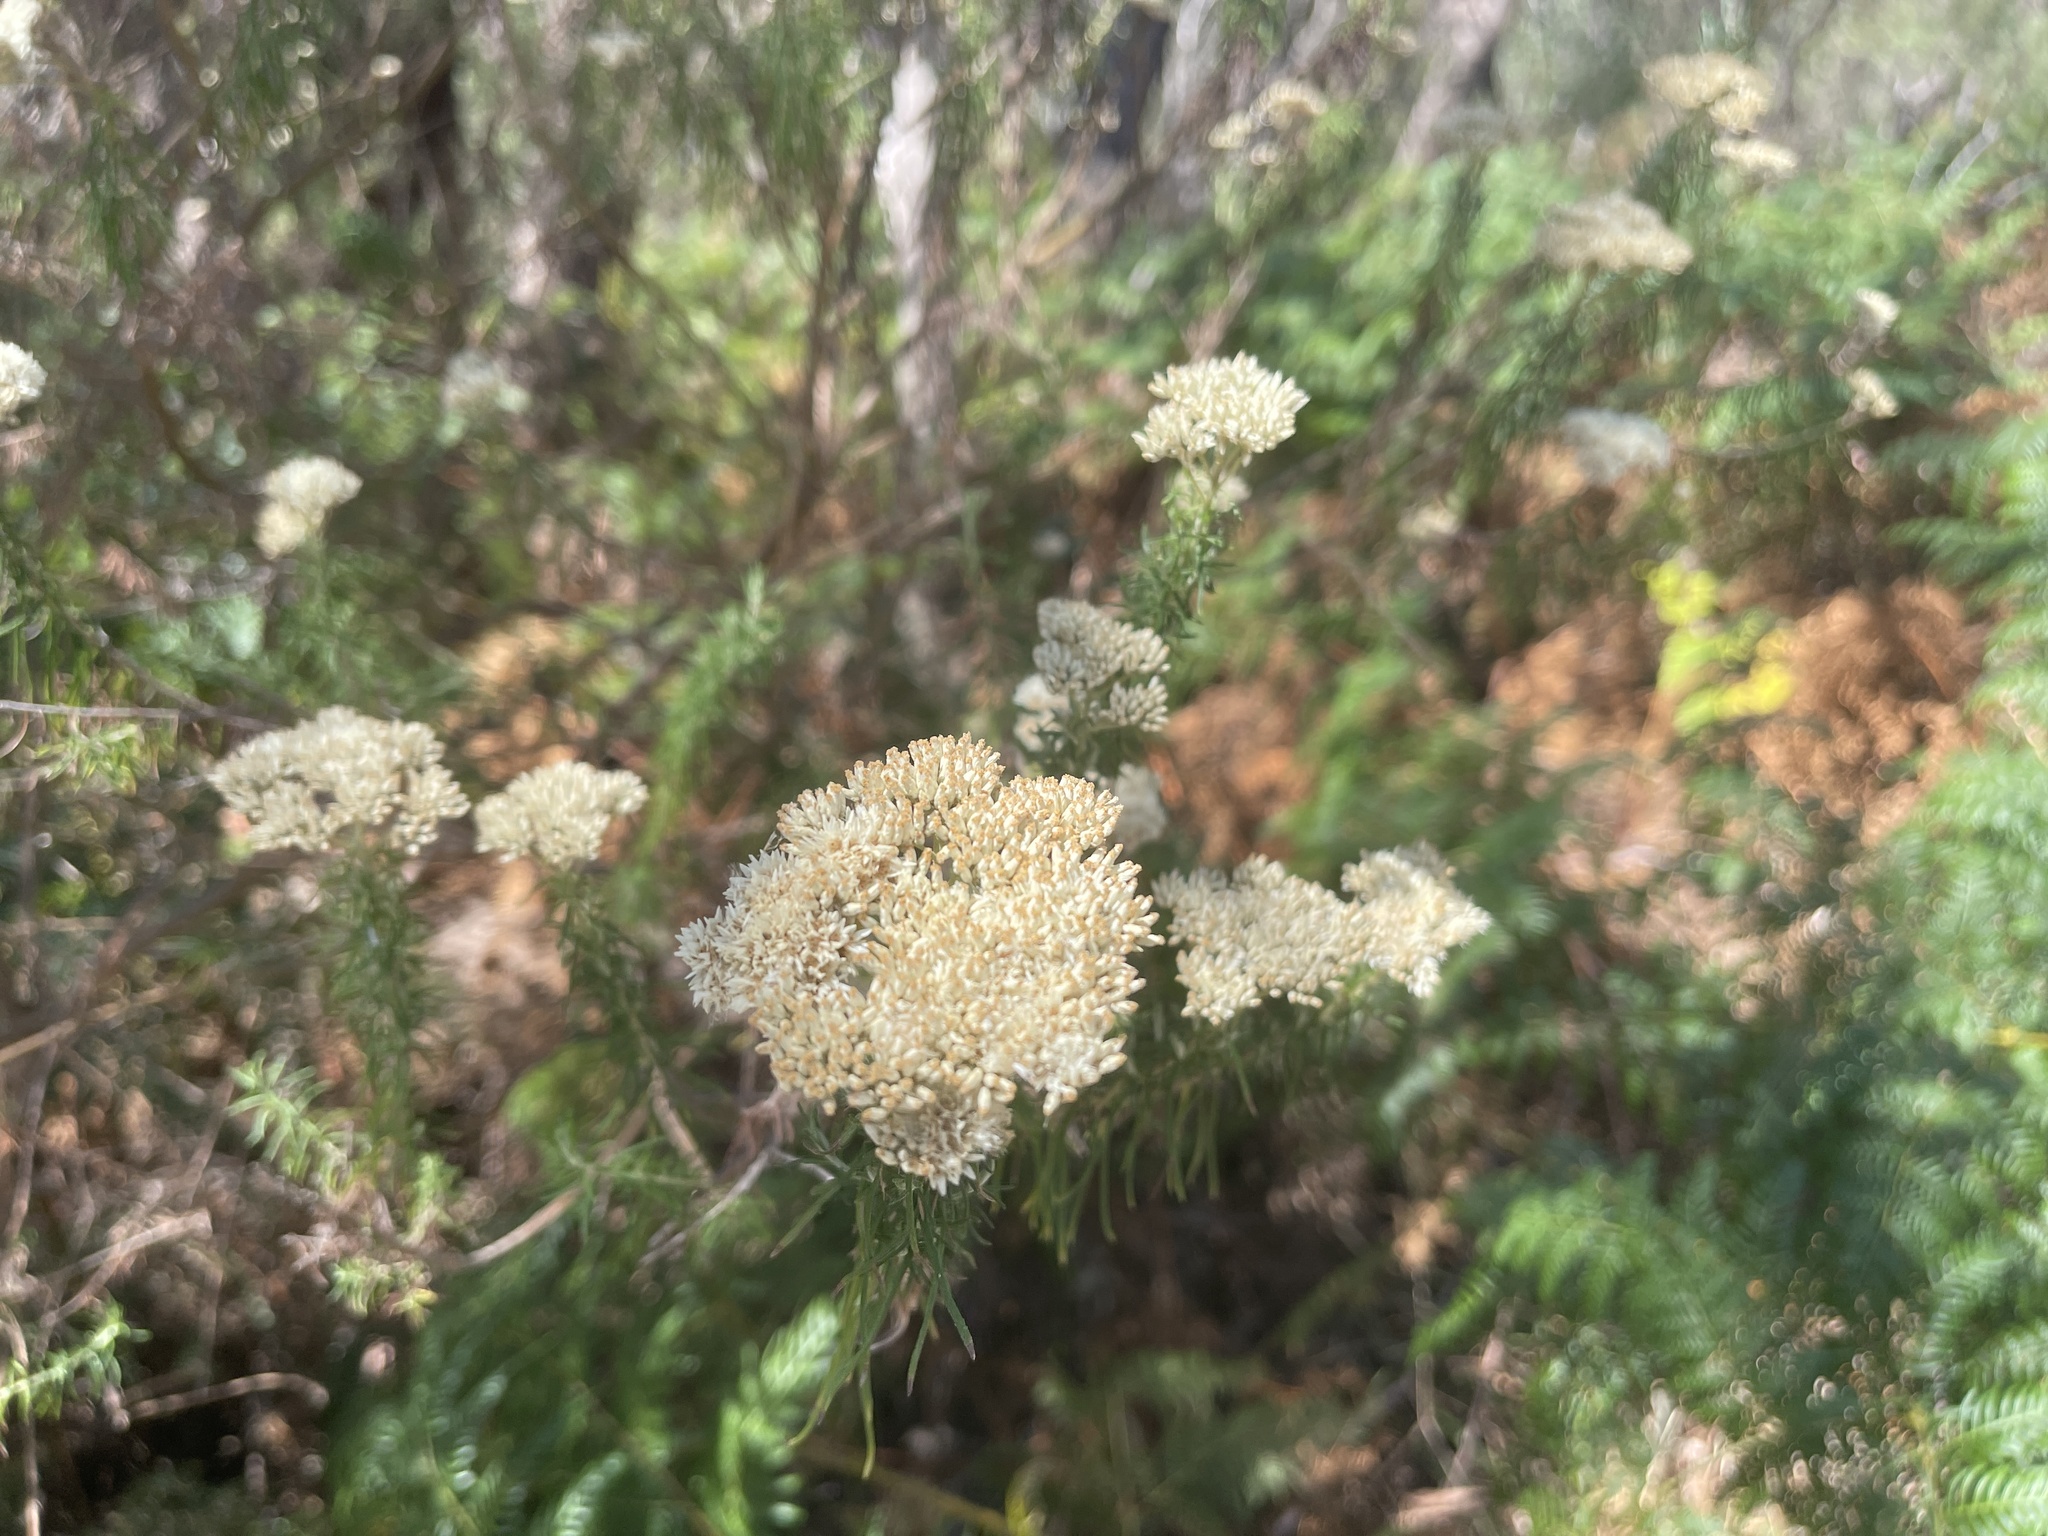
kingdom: Plantae
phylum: Tracheophyta
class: Magnoliopsida
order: Asterales
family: Asteraceae
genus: Cassinia
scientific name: Cassinia longifolia
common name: Longleaf-dogwood
